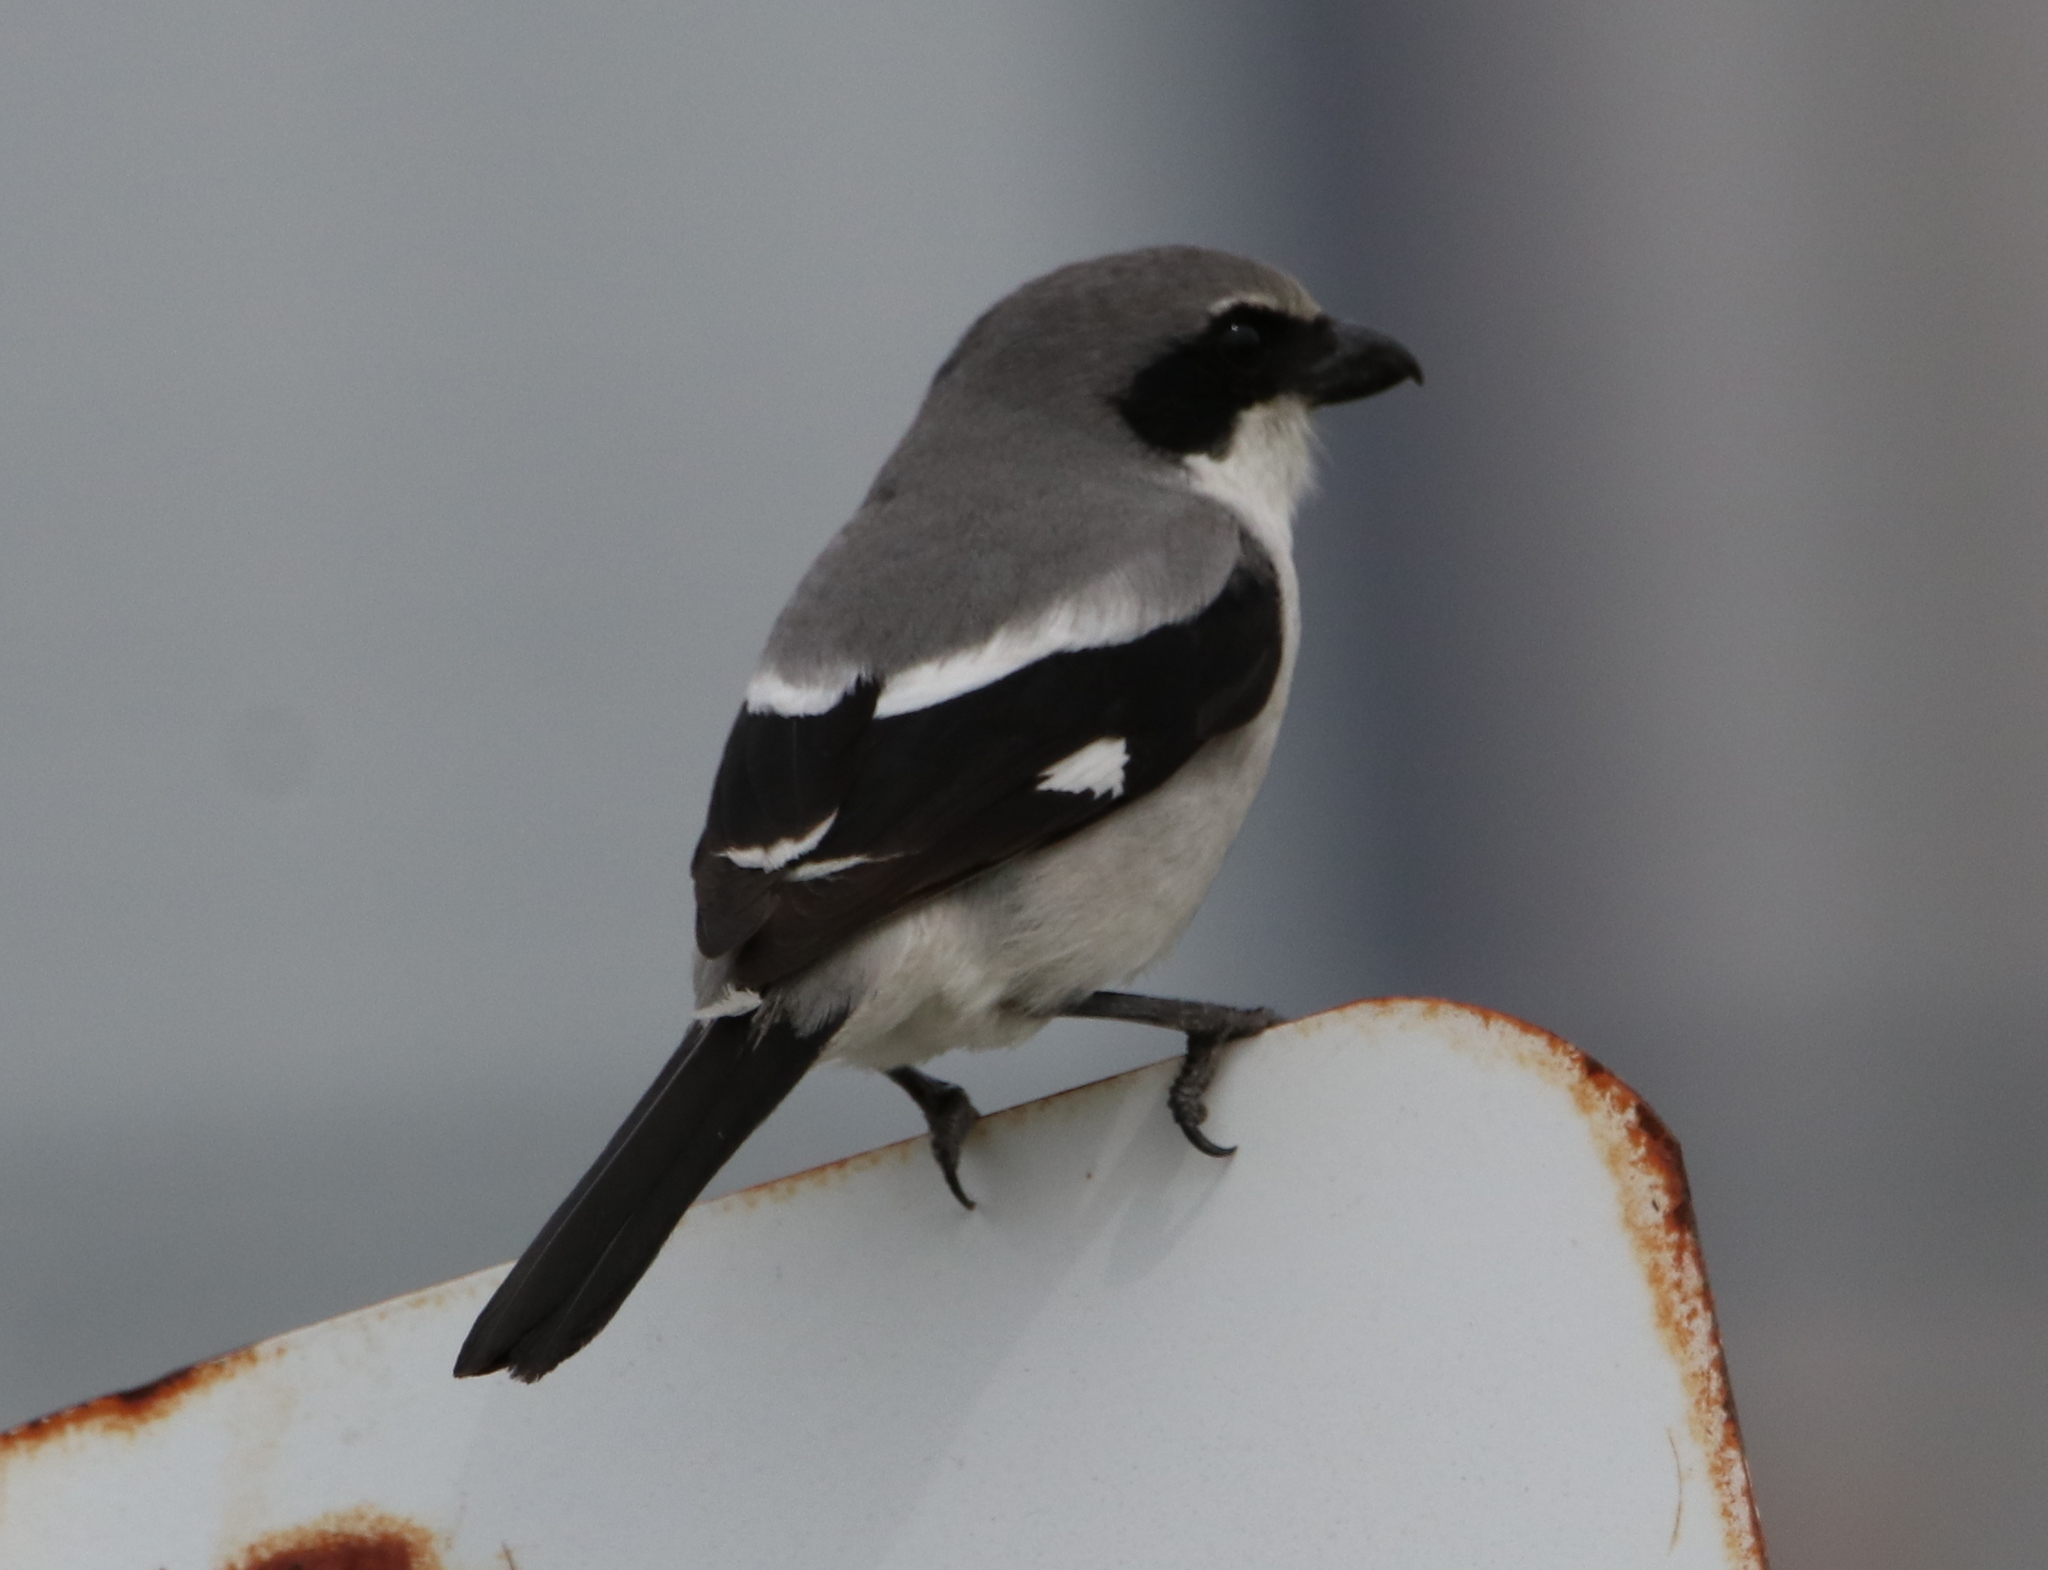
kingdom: Animalia
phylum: Chordata
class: Aves
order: Passeriformes
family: Laniidae
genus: Lanius
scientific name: Lanius ludovicianus
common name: Loggerhead shrike
